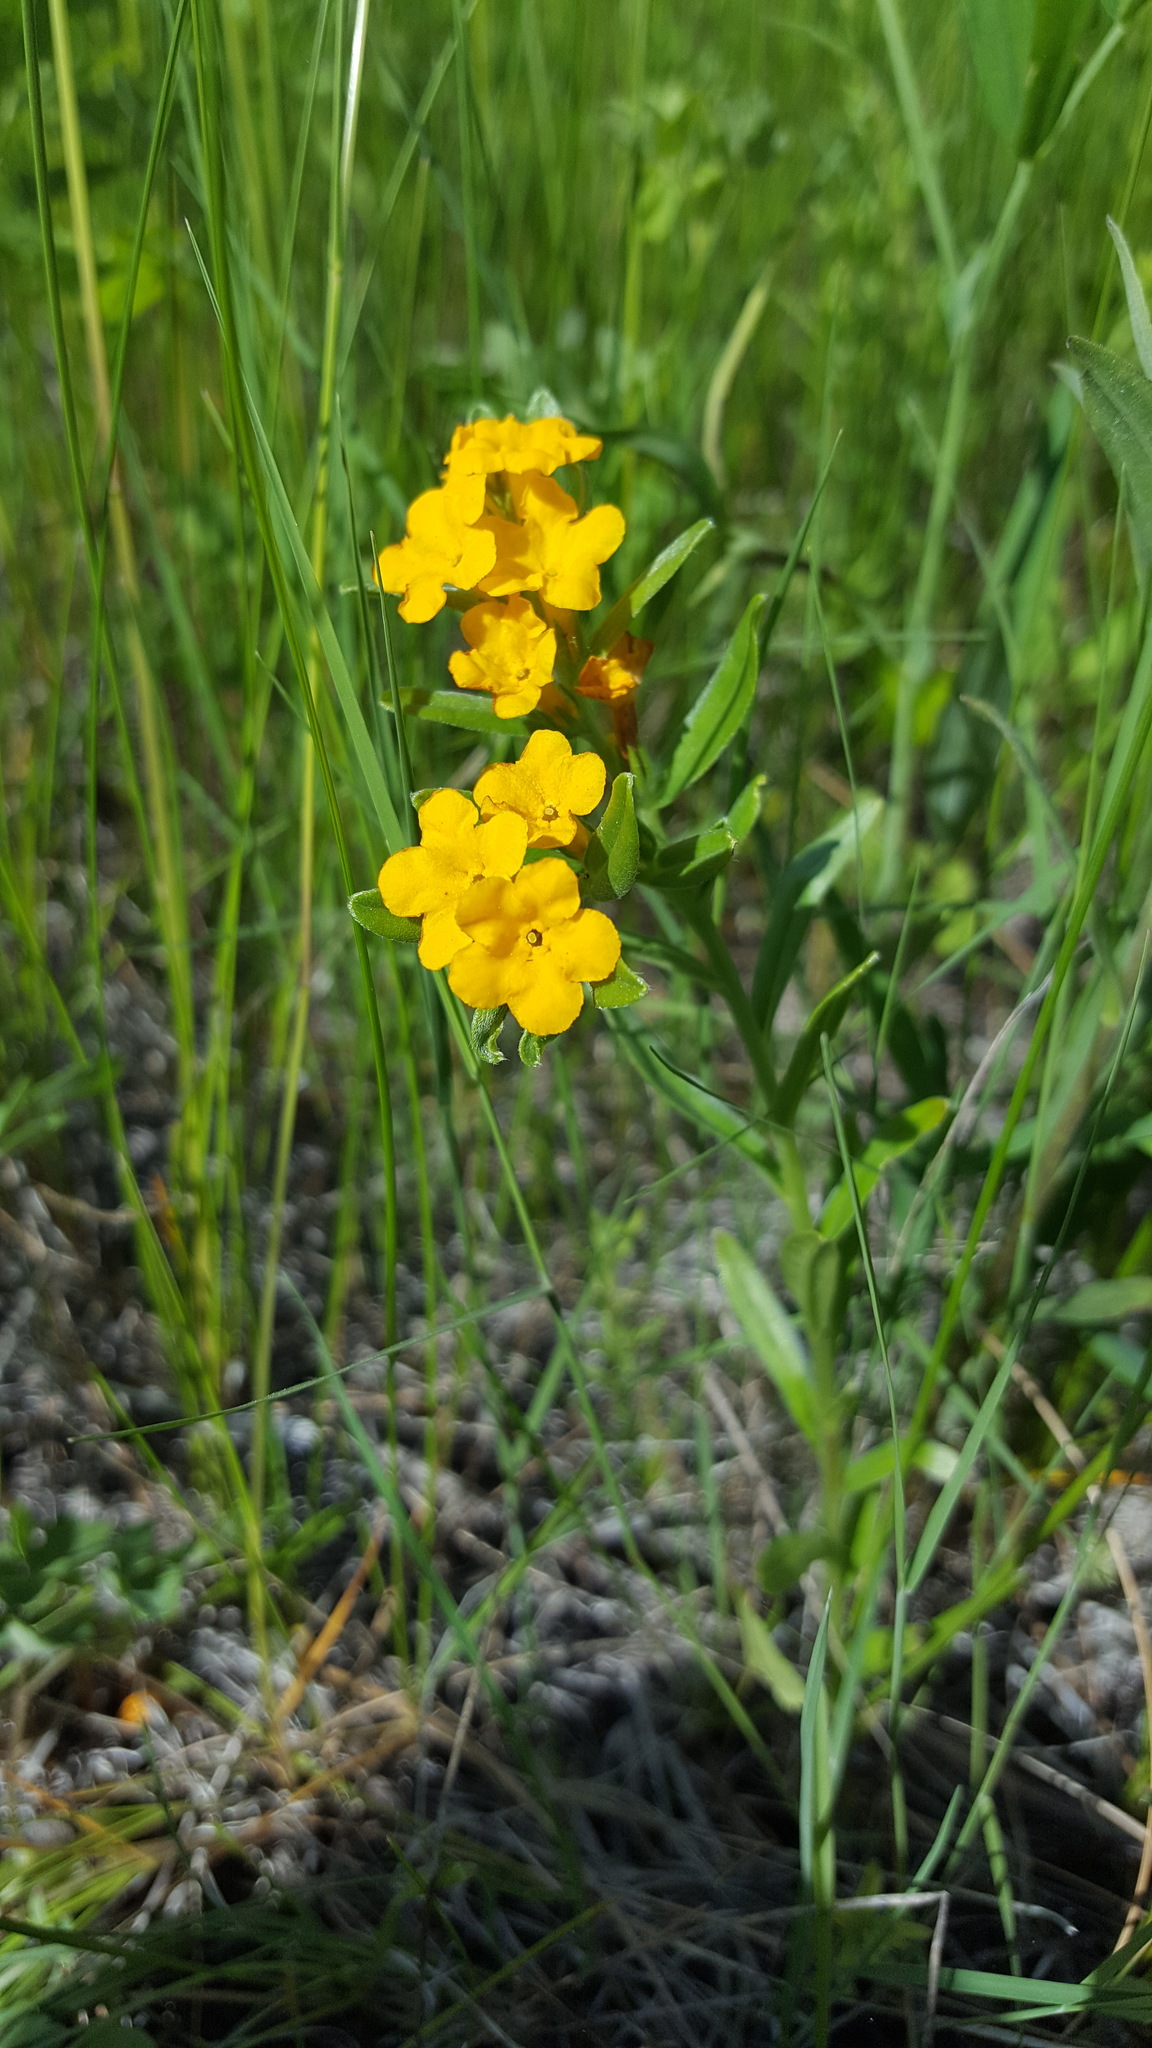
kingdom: Plantae
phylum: Tracheophyta
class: Magnoliopsida
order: Boraginales
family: Boraginaceae
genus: Lithospermum
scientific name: Lithospermum canescens
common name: Hoary puccoon
